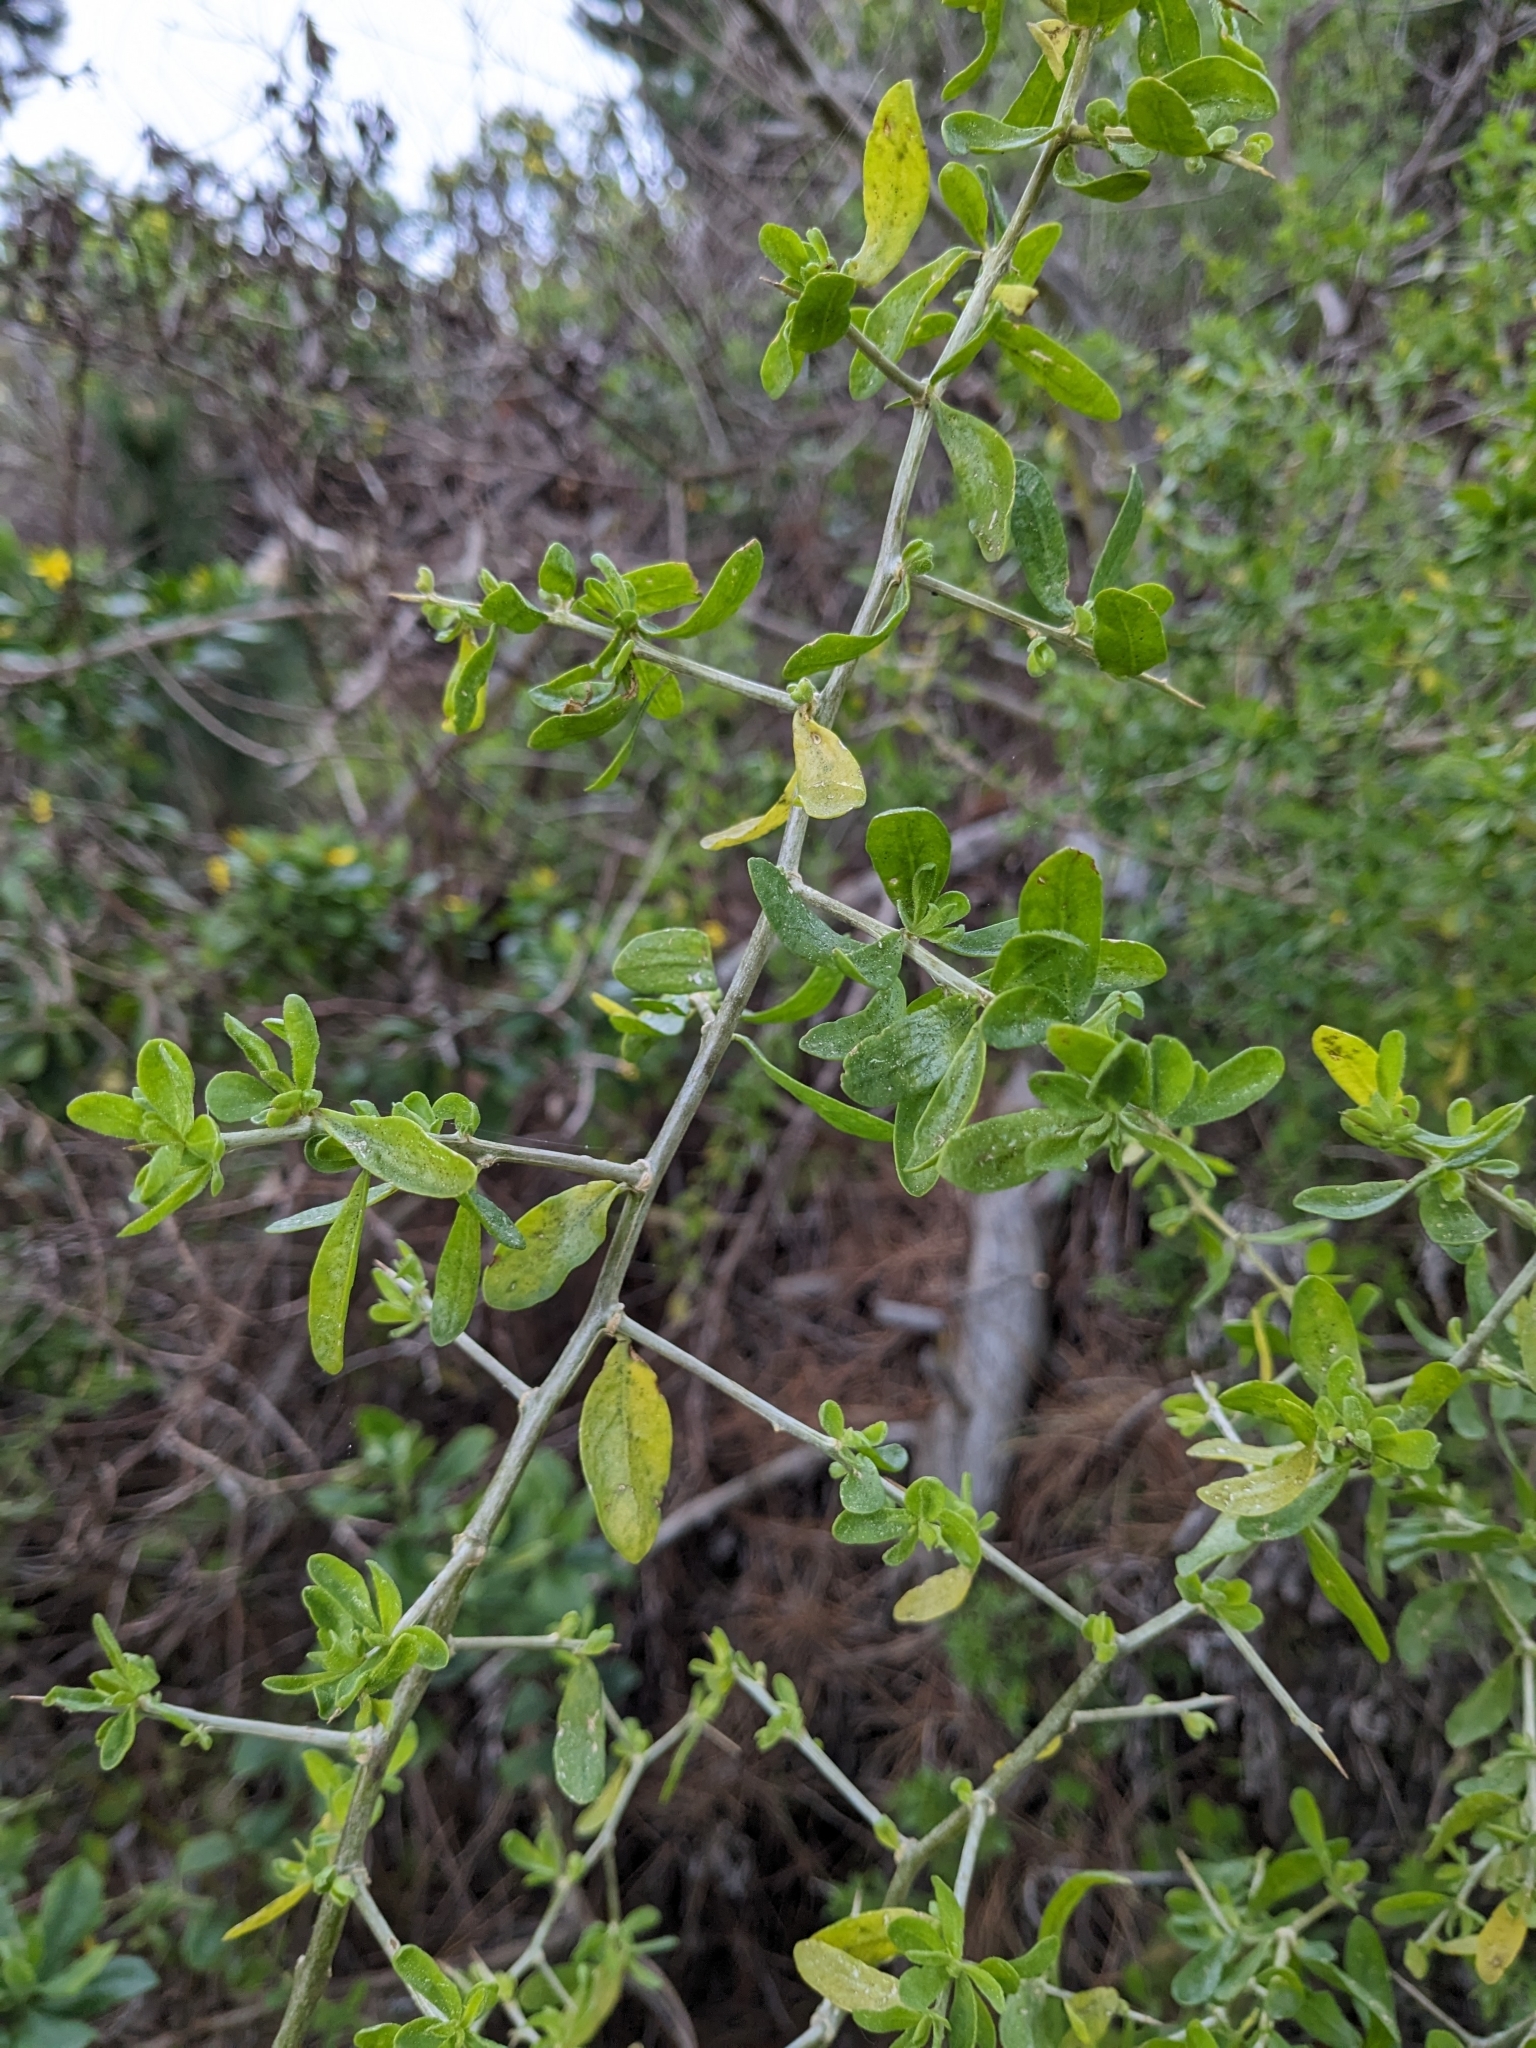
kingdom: Plantae
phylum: Tracheophyta
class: Magnoliopsida
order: Solanales
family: Solanaceae
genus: Lycium
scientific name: Lycium ferocissimum
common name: African boxthorn
